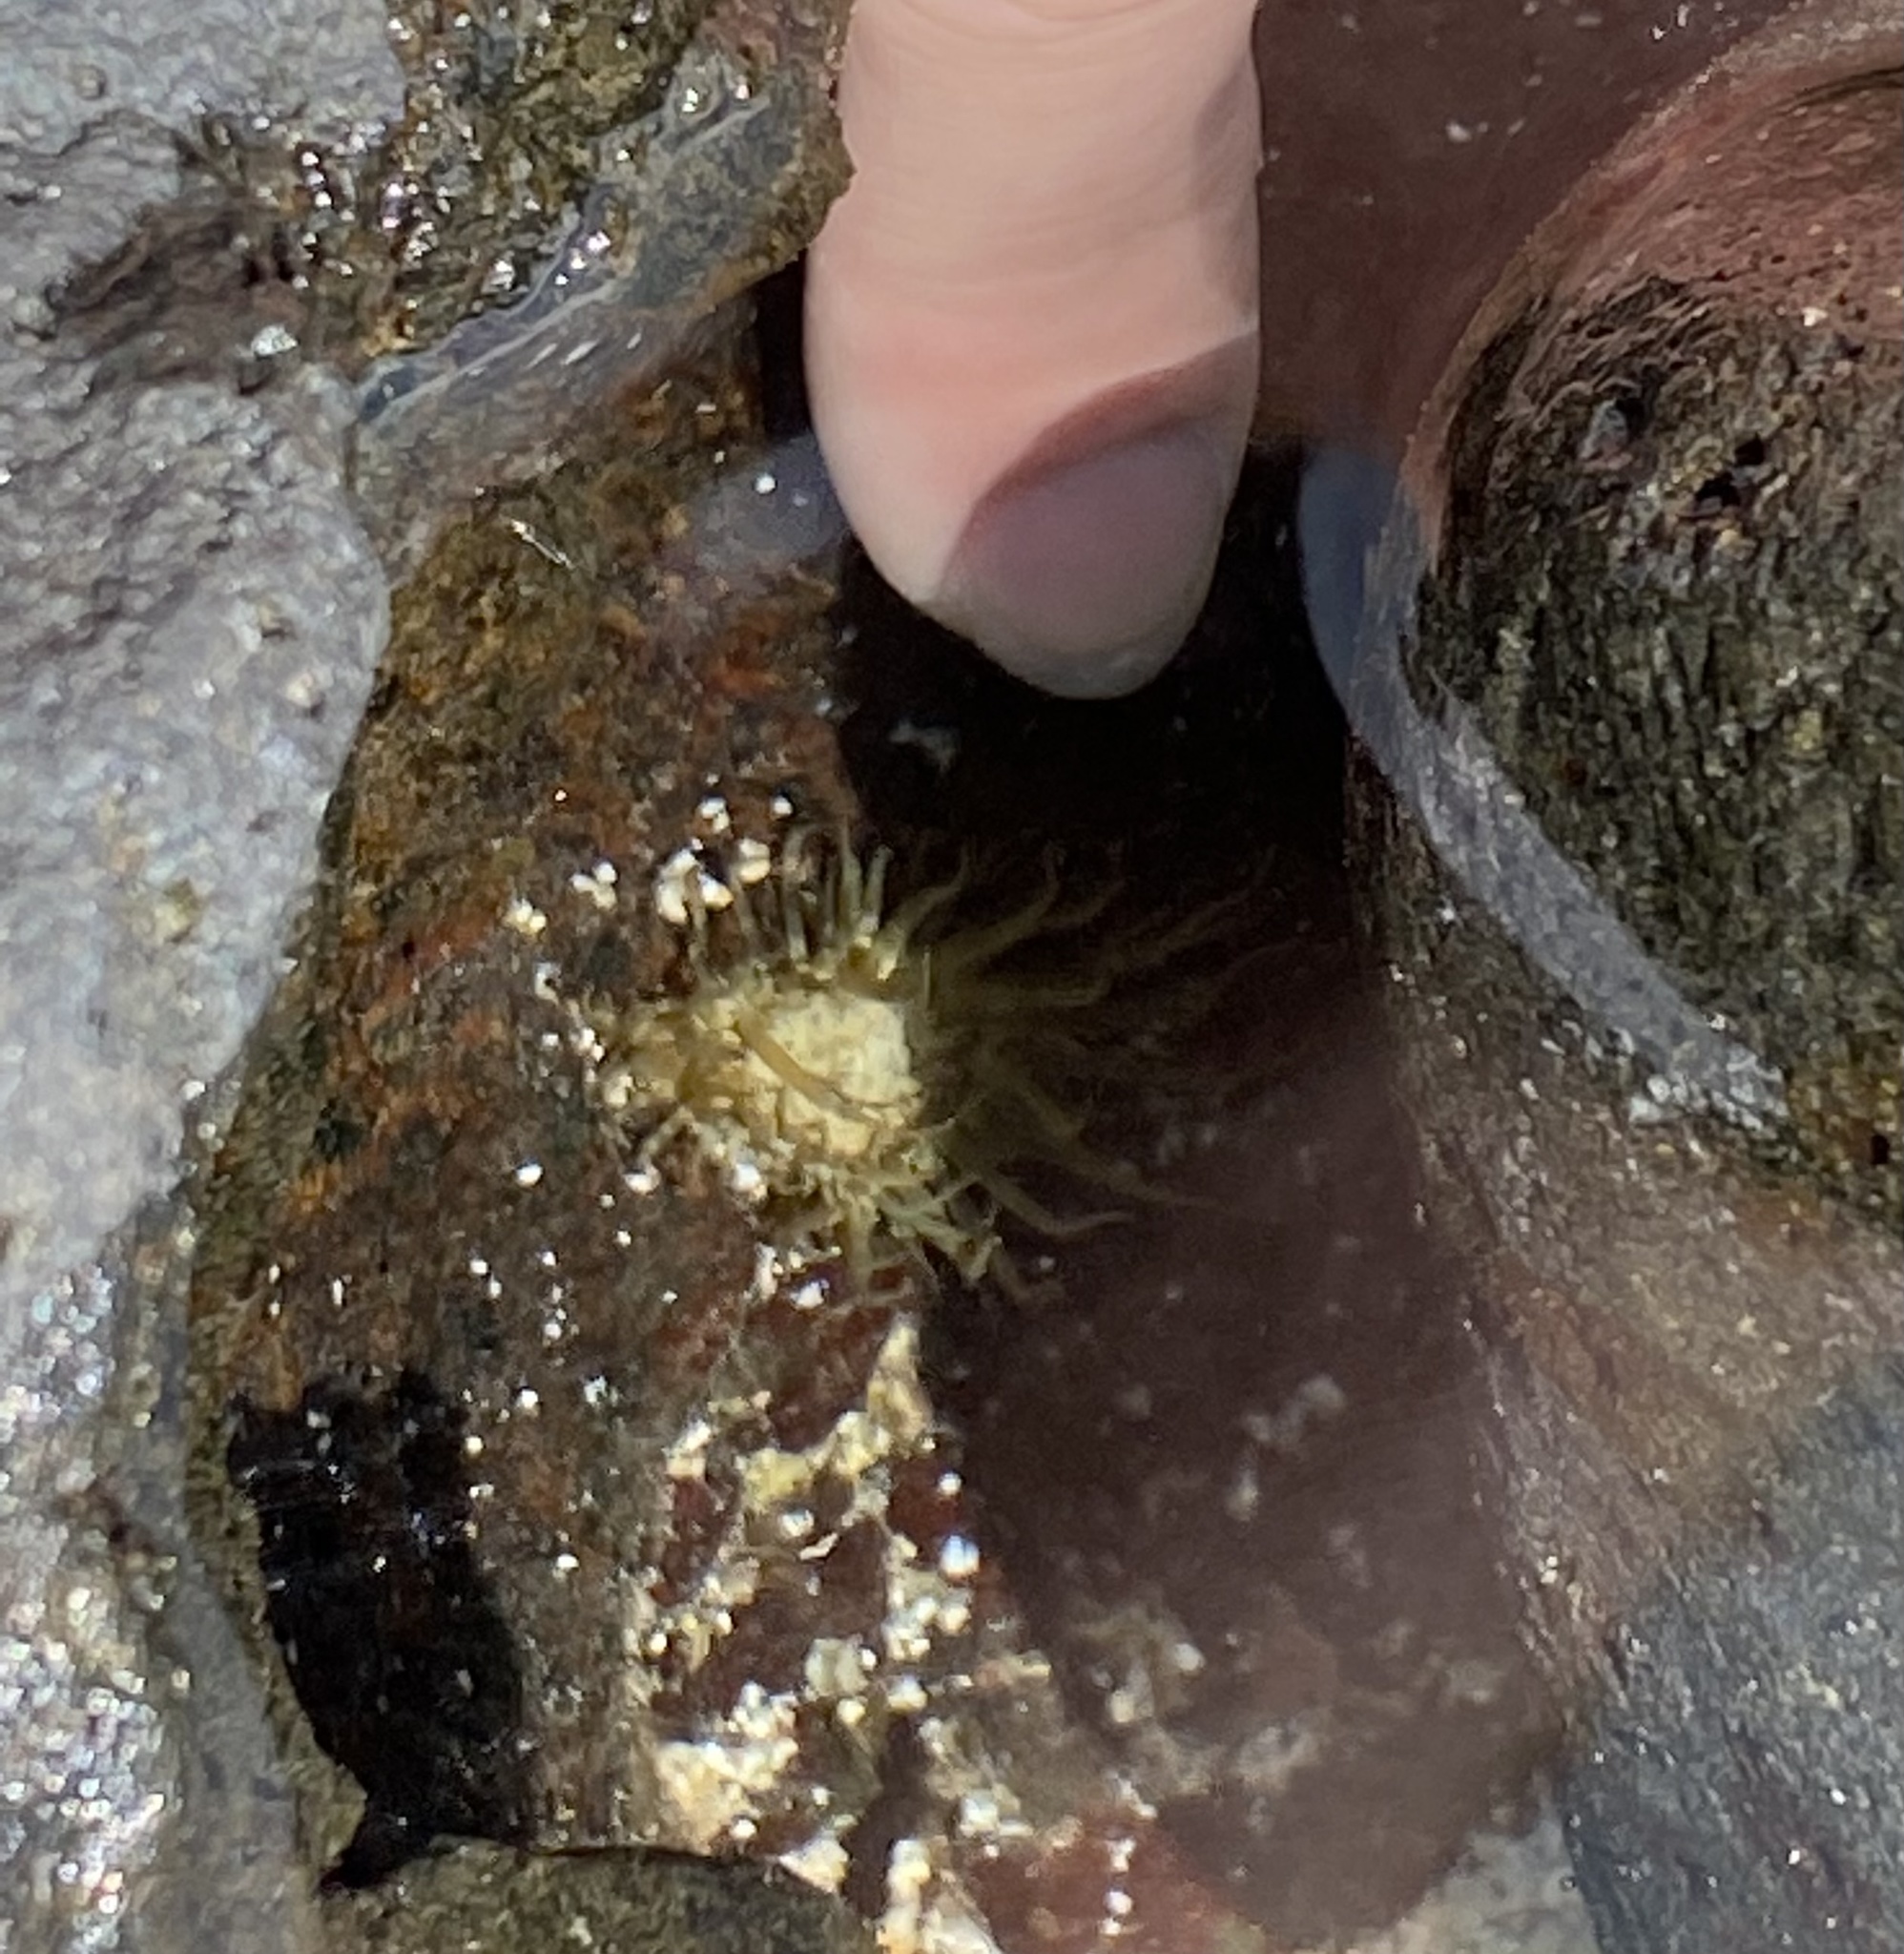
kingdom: Animalia
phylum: Cnidaria
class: Anthozoa
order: Actiniaria
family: Aiptasiidae
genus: Exaiptasia
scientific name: Exaiptasia diaphana
